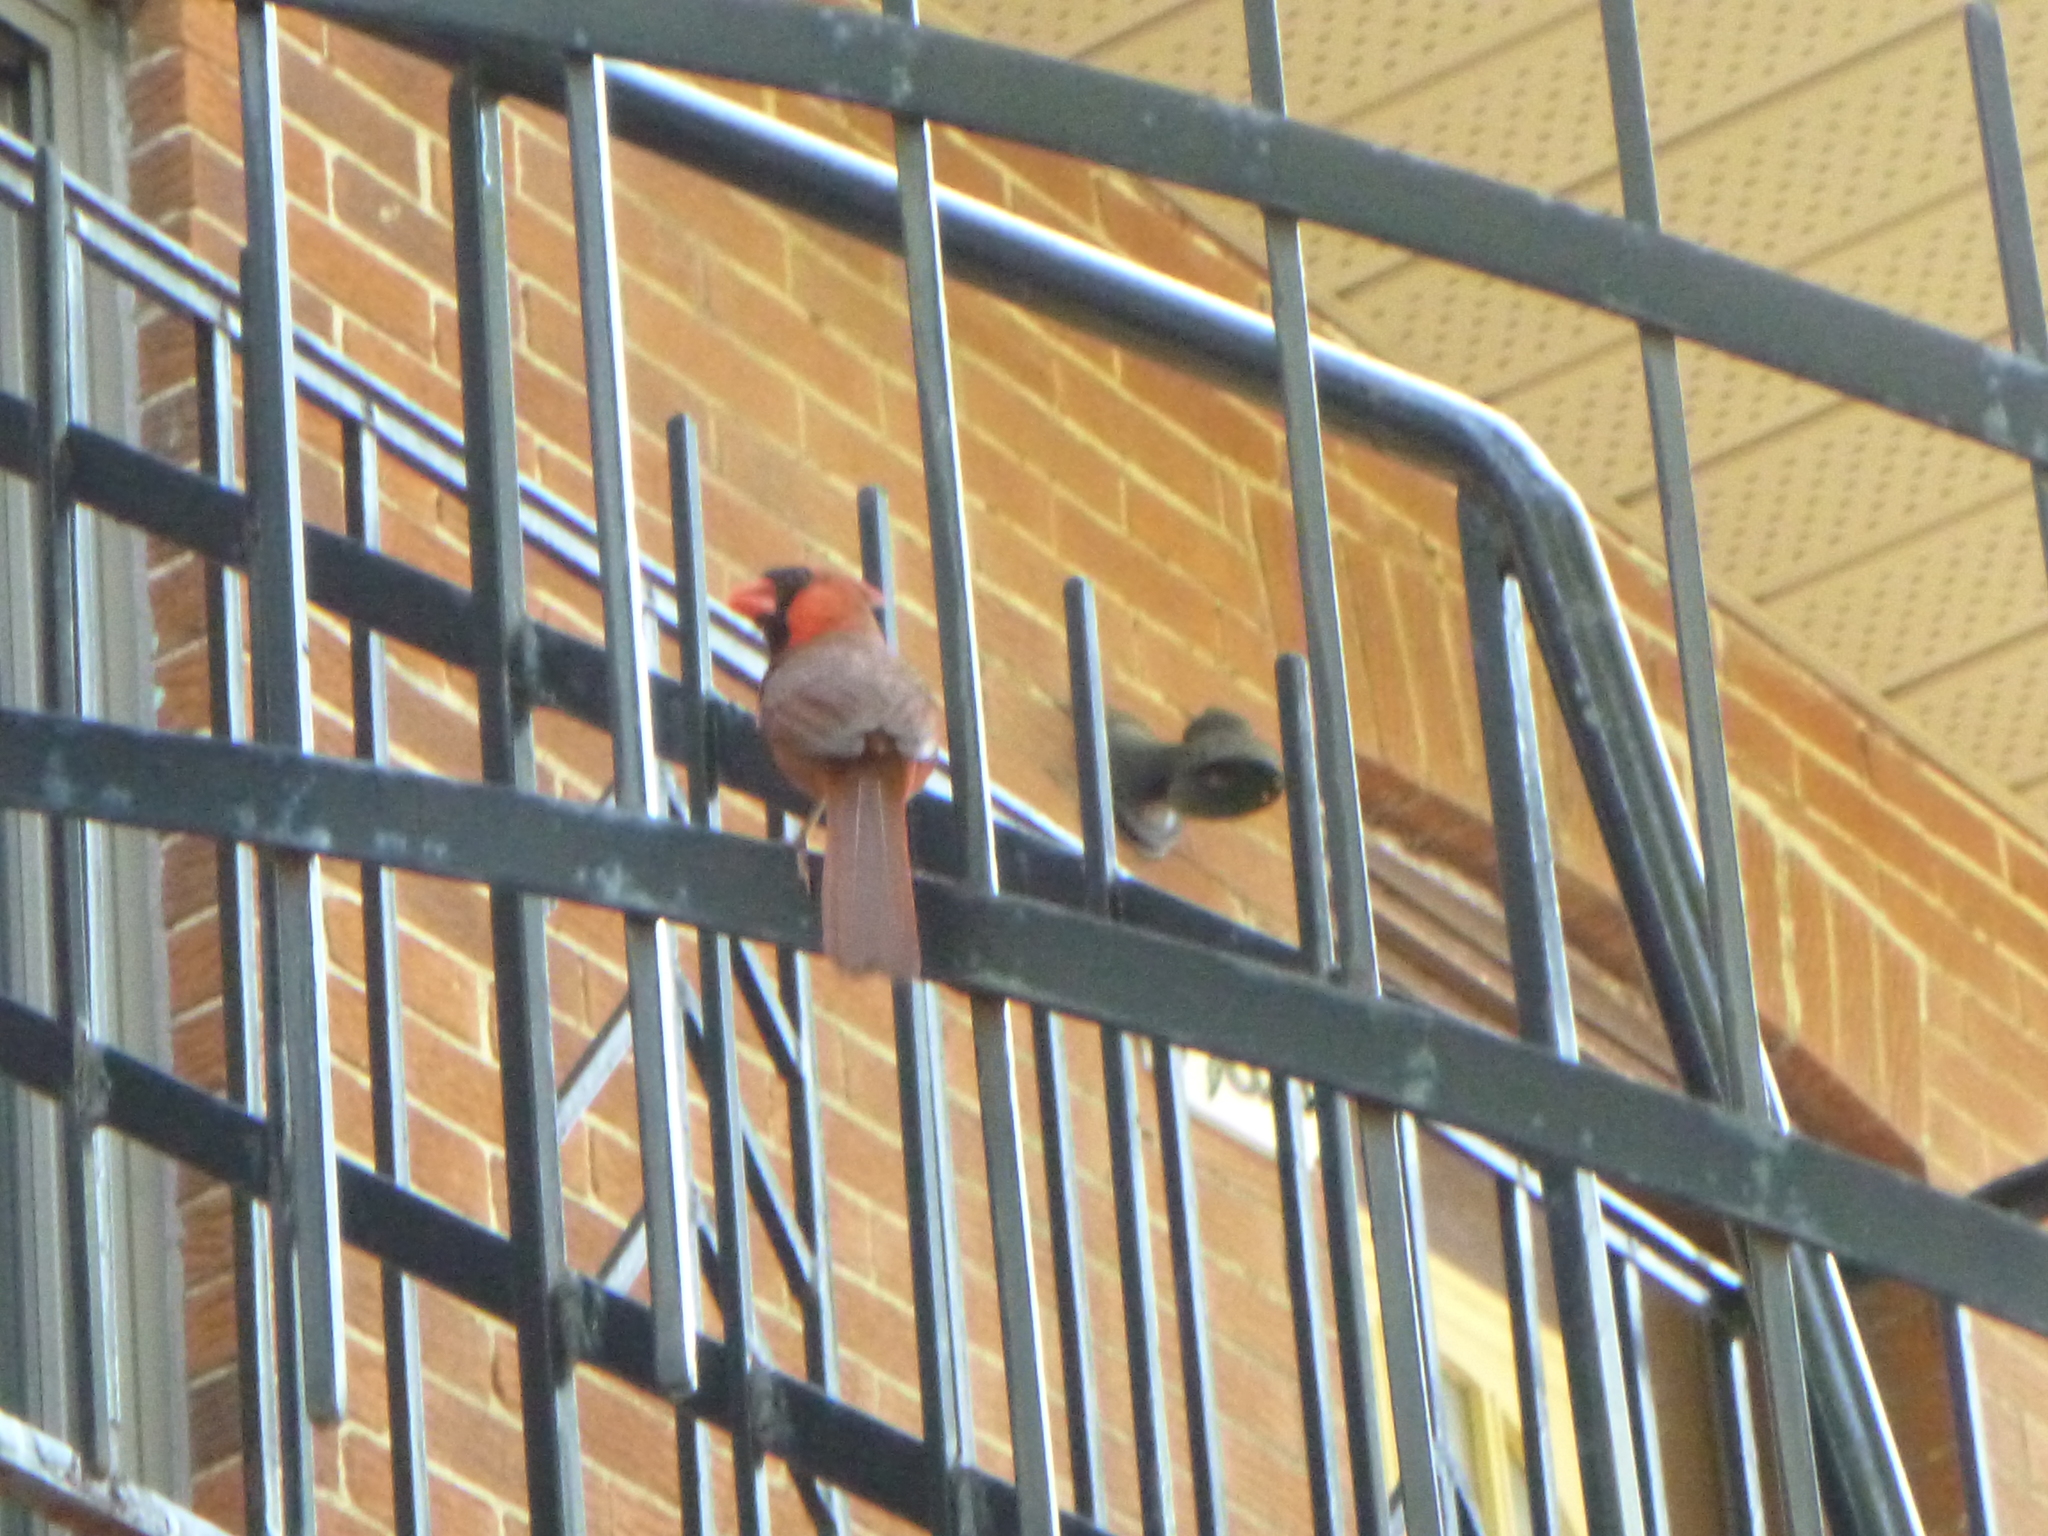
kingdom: Animalia
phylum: Chordata
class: Aves
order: Passeriformes
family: Cardinalidae
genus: Cardinalis
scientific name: Cardinalis cardinalis
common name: Northern cardinal
